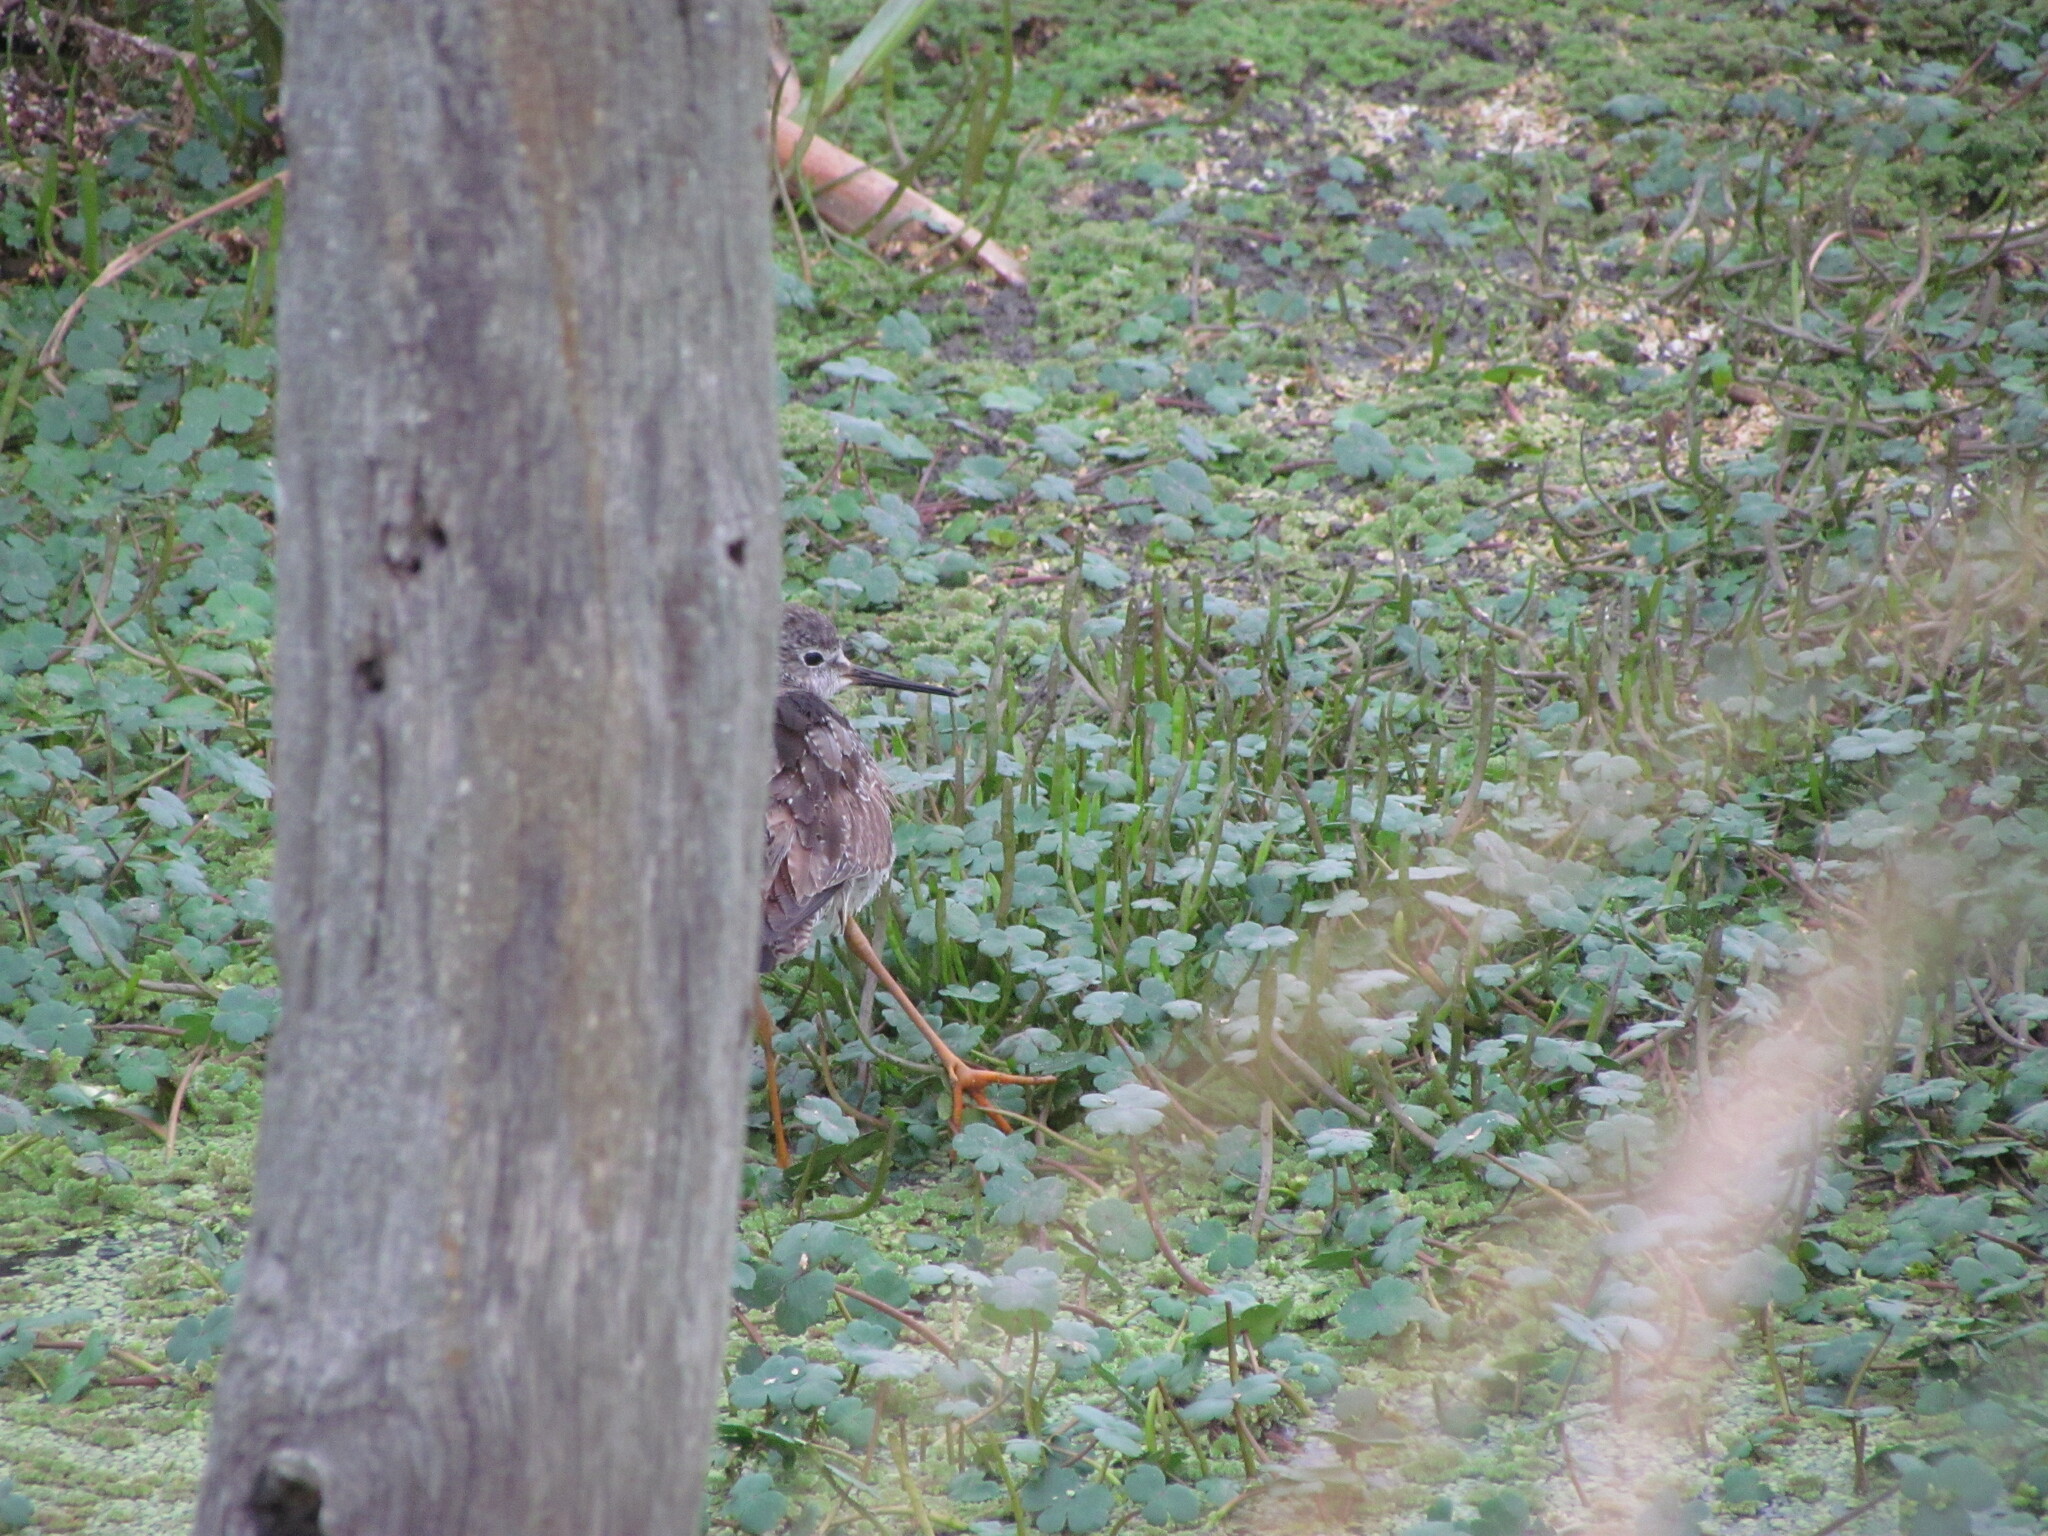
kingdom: Animalia
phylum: Chordata
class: Aves
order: Charadriiformes
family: Scolopacidae
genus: Tringa
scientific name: Tringa flavipes
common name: Lesser yellowlegs
